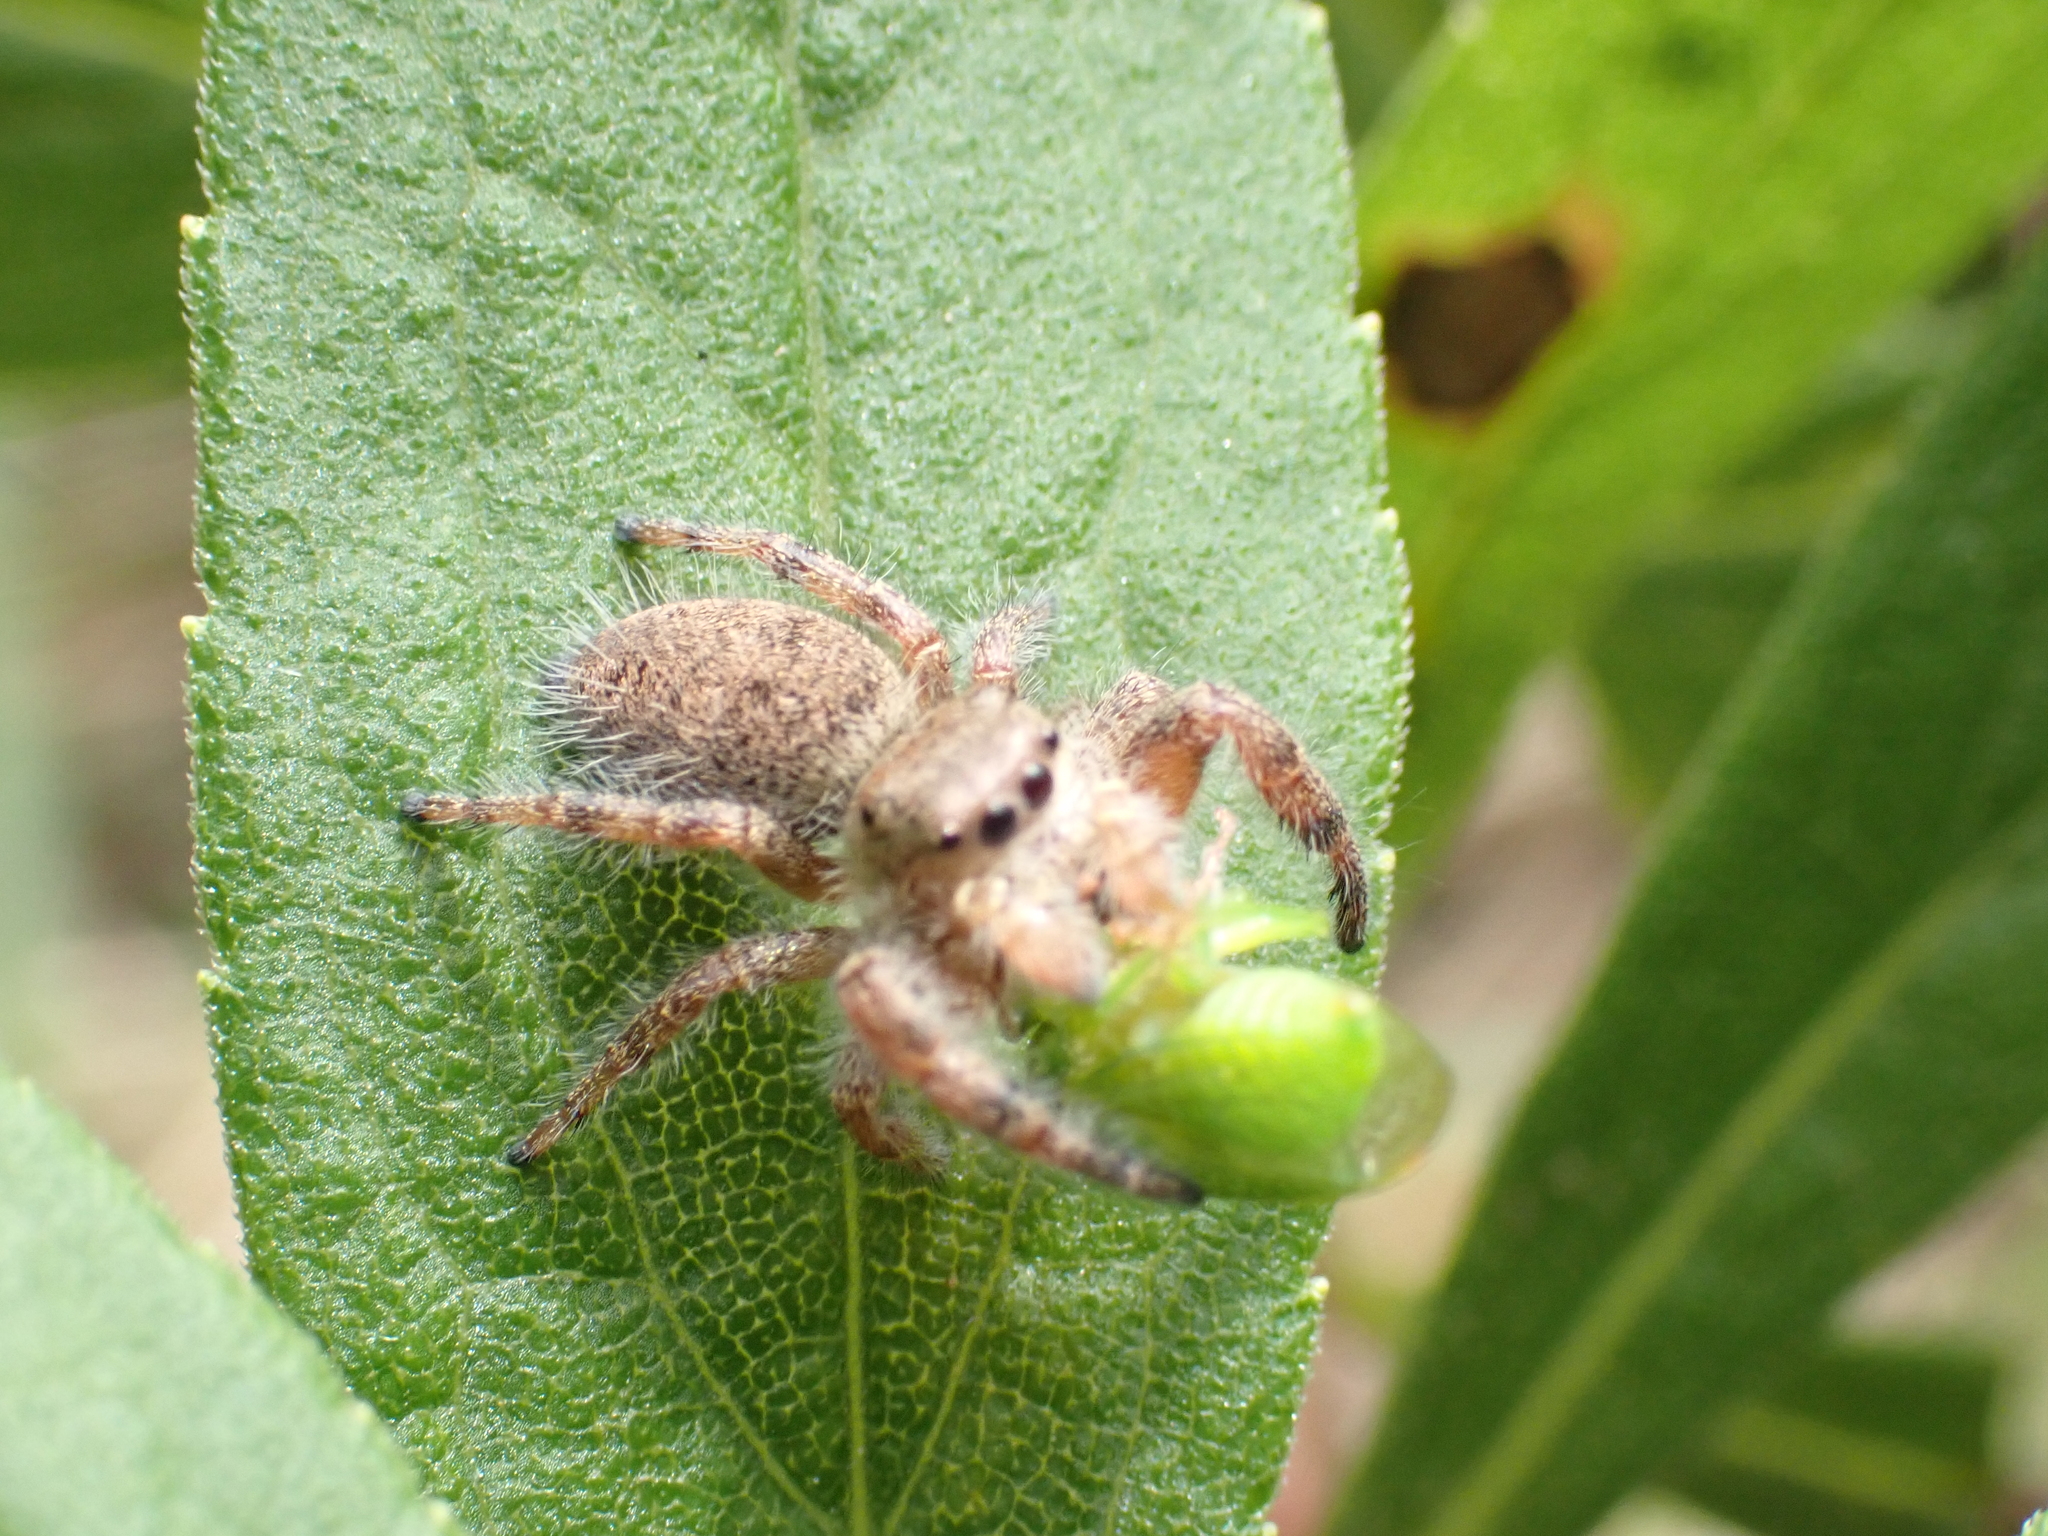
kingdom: Animalia
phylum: Arthropoda
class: Arachnida
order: Araneae
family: Salticidae
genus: Phidippus
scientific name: Phidippus princeps
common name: Grayish jumping spider
